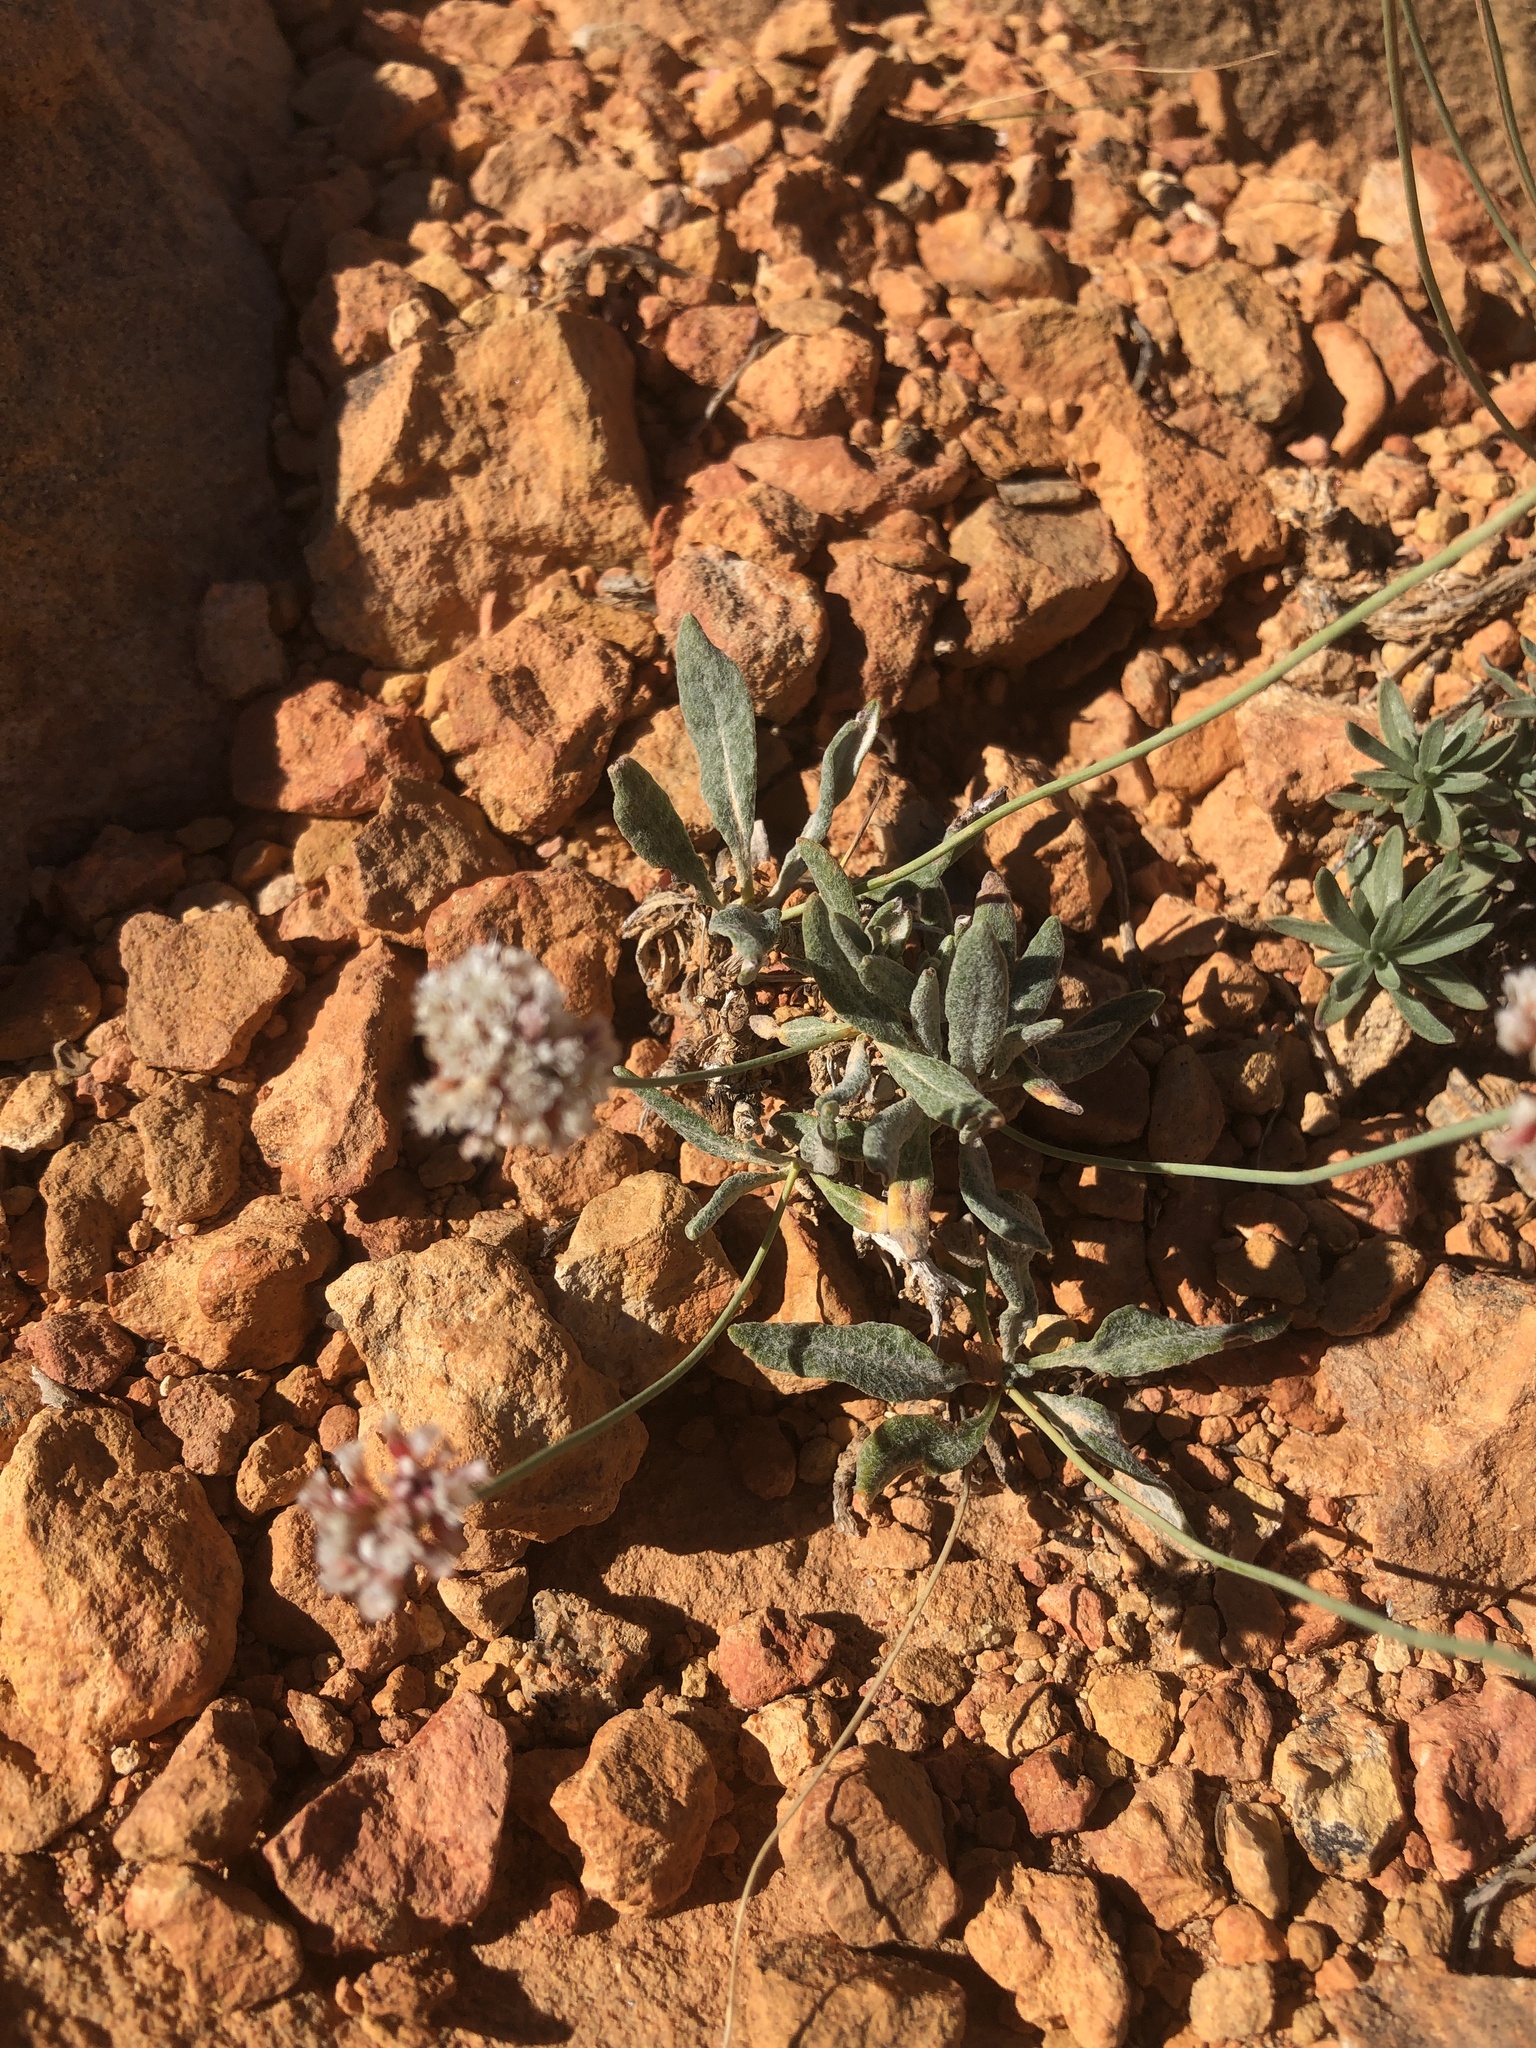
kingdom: Plantae
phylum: Tracheophyta
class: Magnoliopsida
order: Caryophyllales
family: Polygonaceae
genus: Eriogonum
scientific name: Eriogonum panguicense
